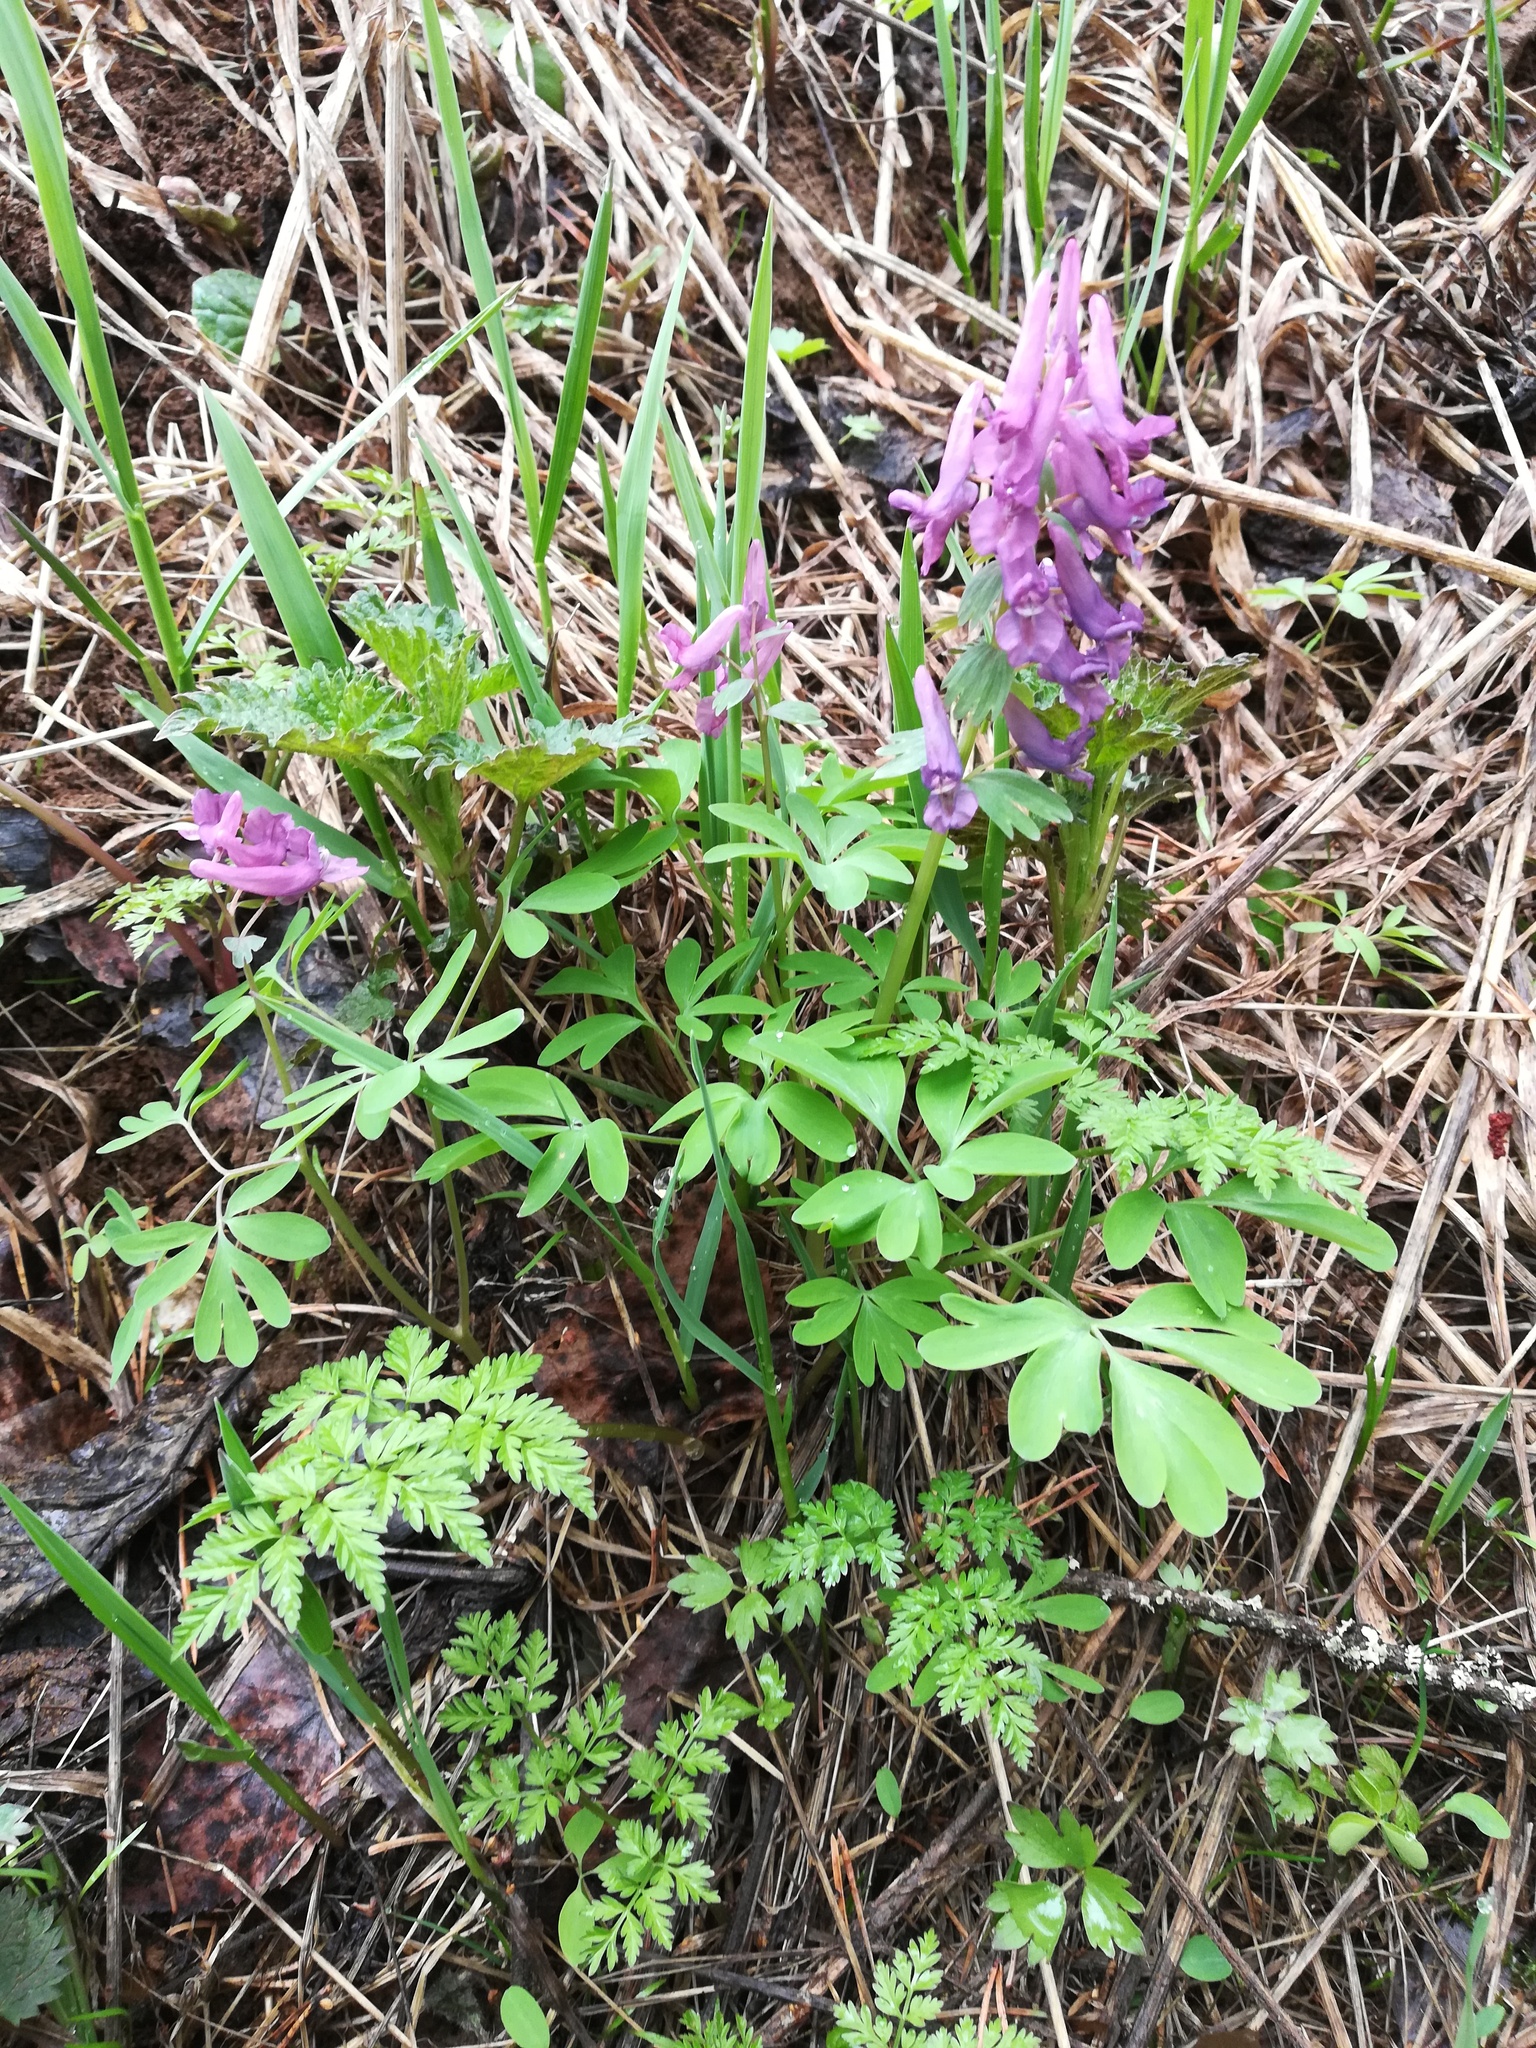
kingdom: Plantae
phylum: Tracheophyta
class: Magnoliopsida
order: Ranunculales
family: Papaveraceae
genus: Corydalis
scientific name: Corydalis solida
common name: Bird-in-a-bush
